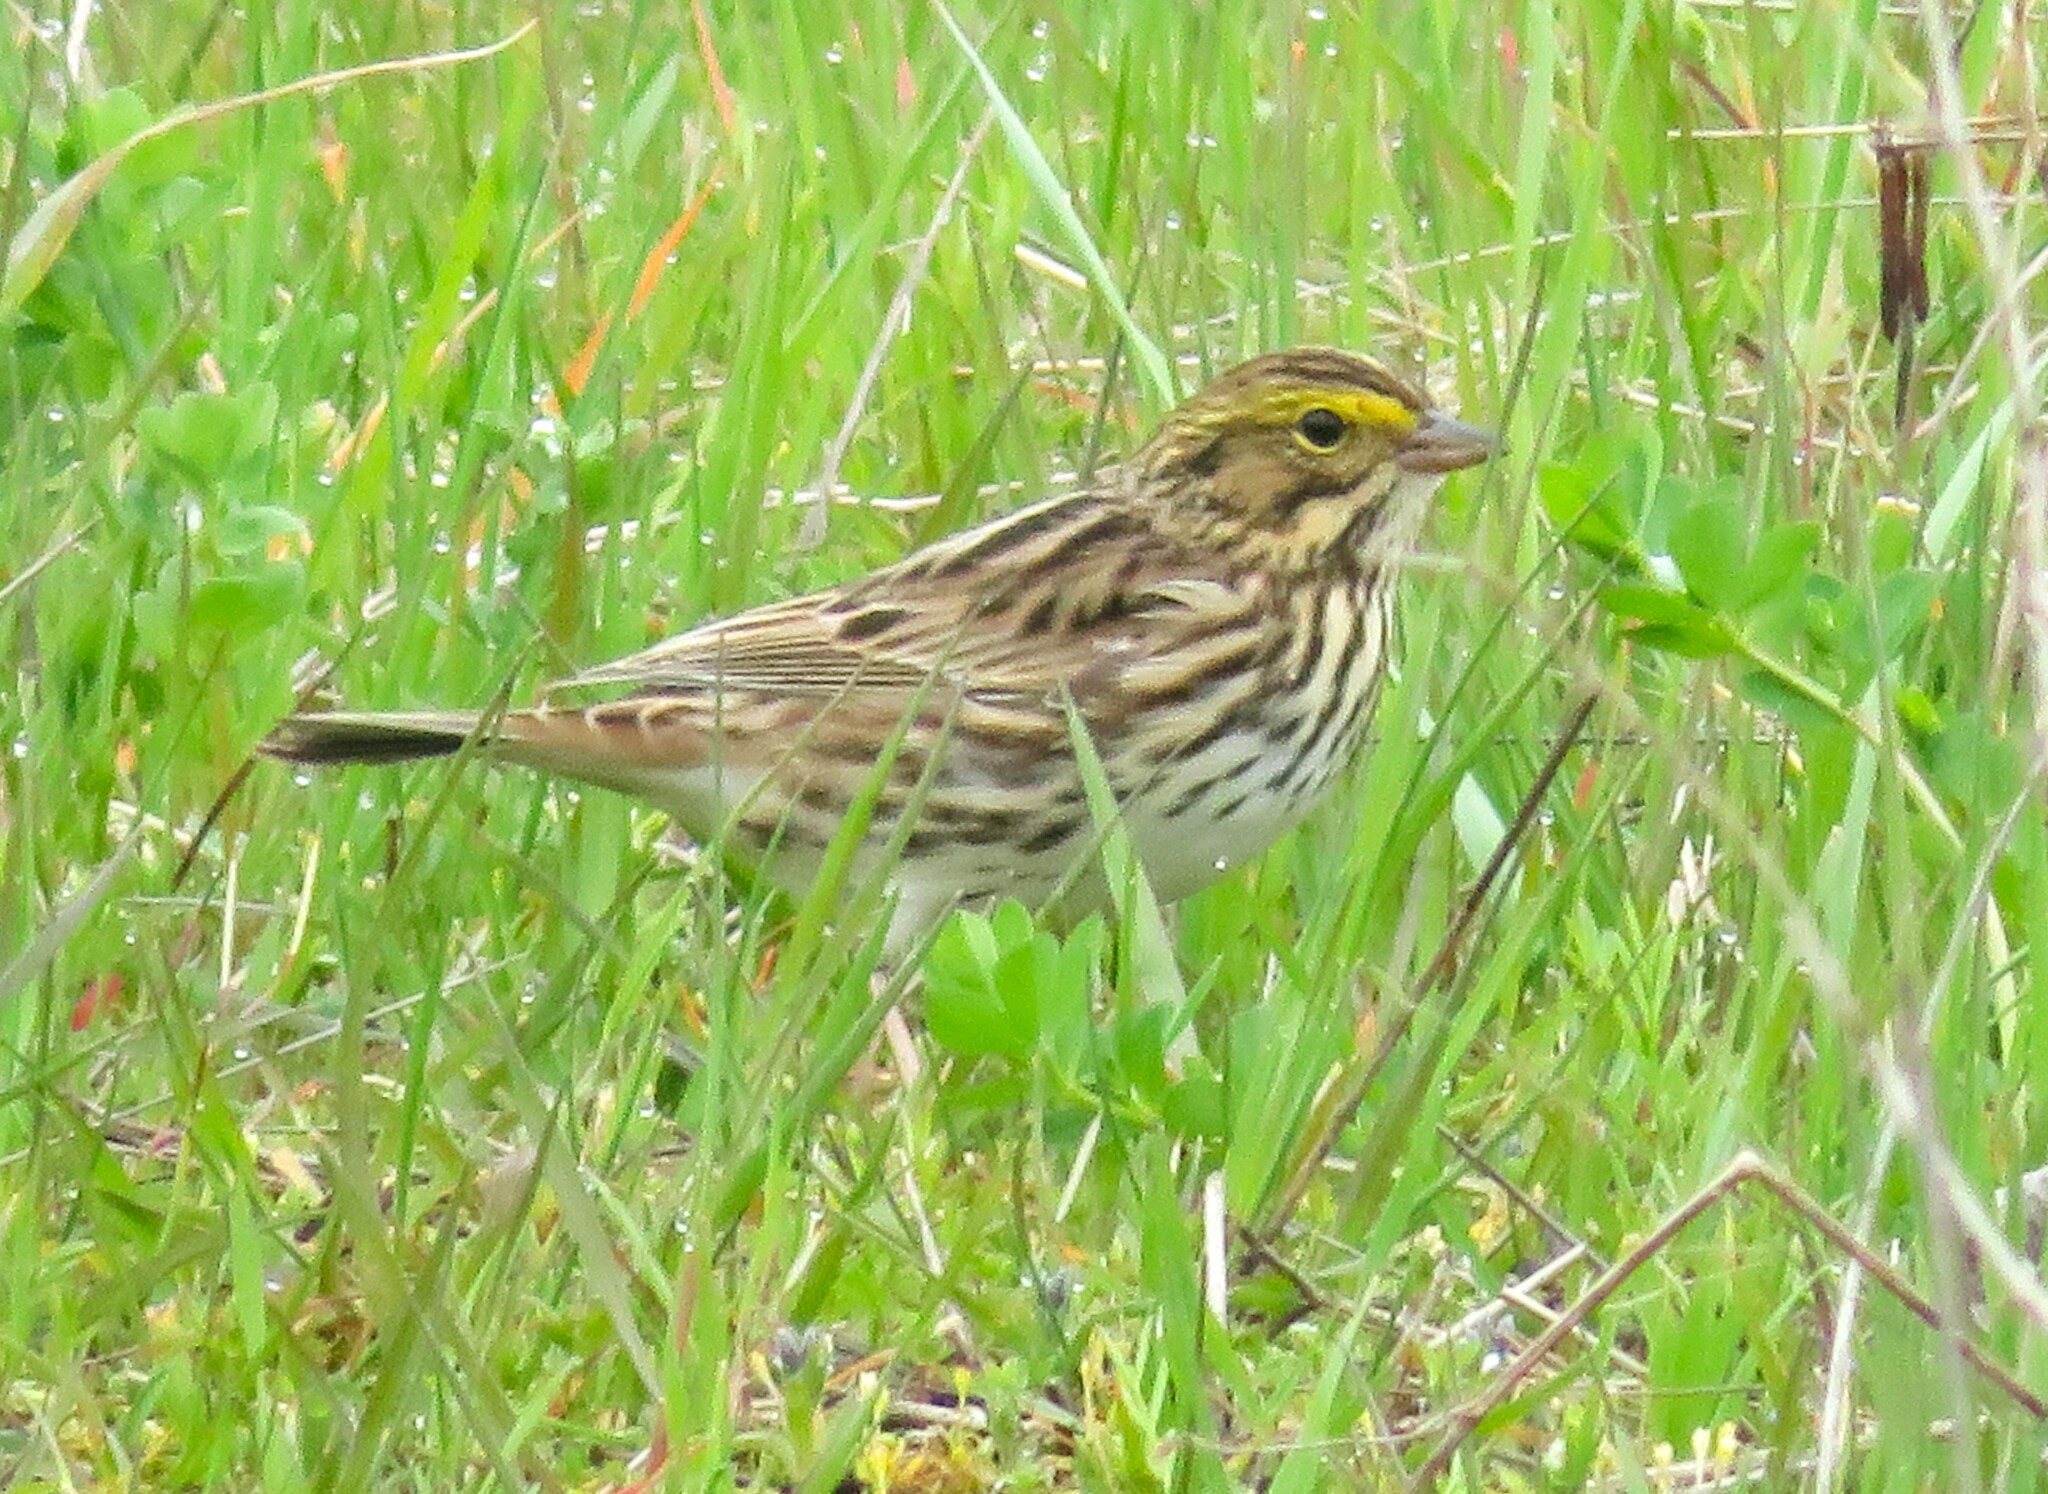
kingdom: Animalia
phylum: Chordata
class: Aves
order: Passeriformes
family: Passerellidae
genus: Passerculus
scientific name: Passerculus sandwichensis
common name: Savannah sparrow
